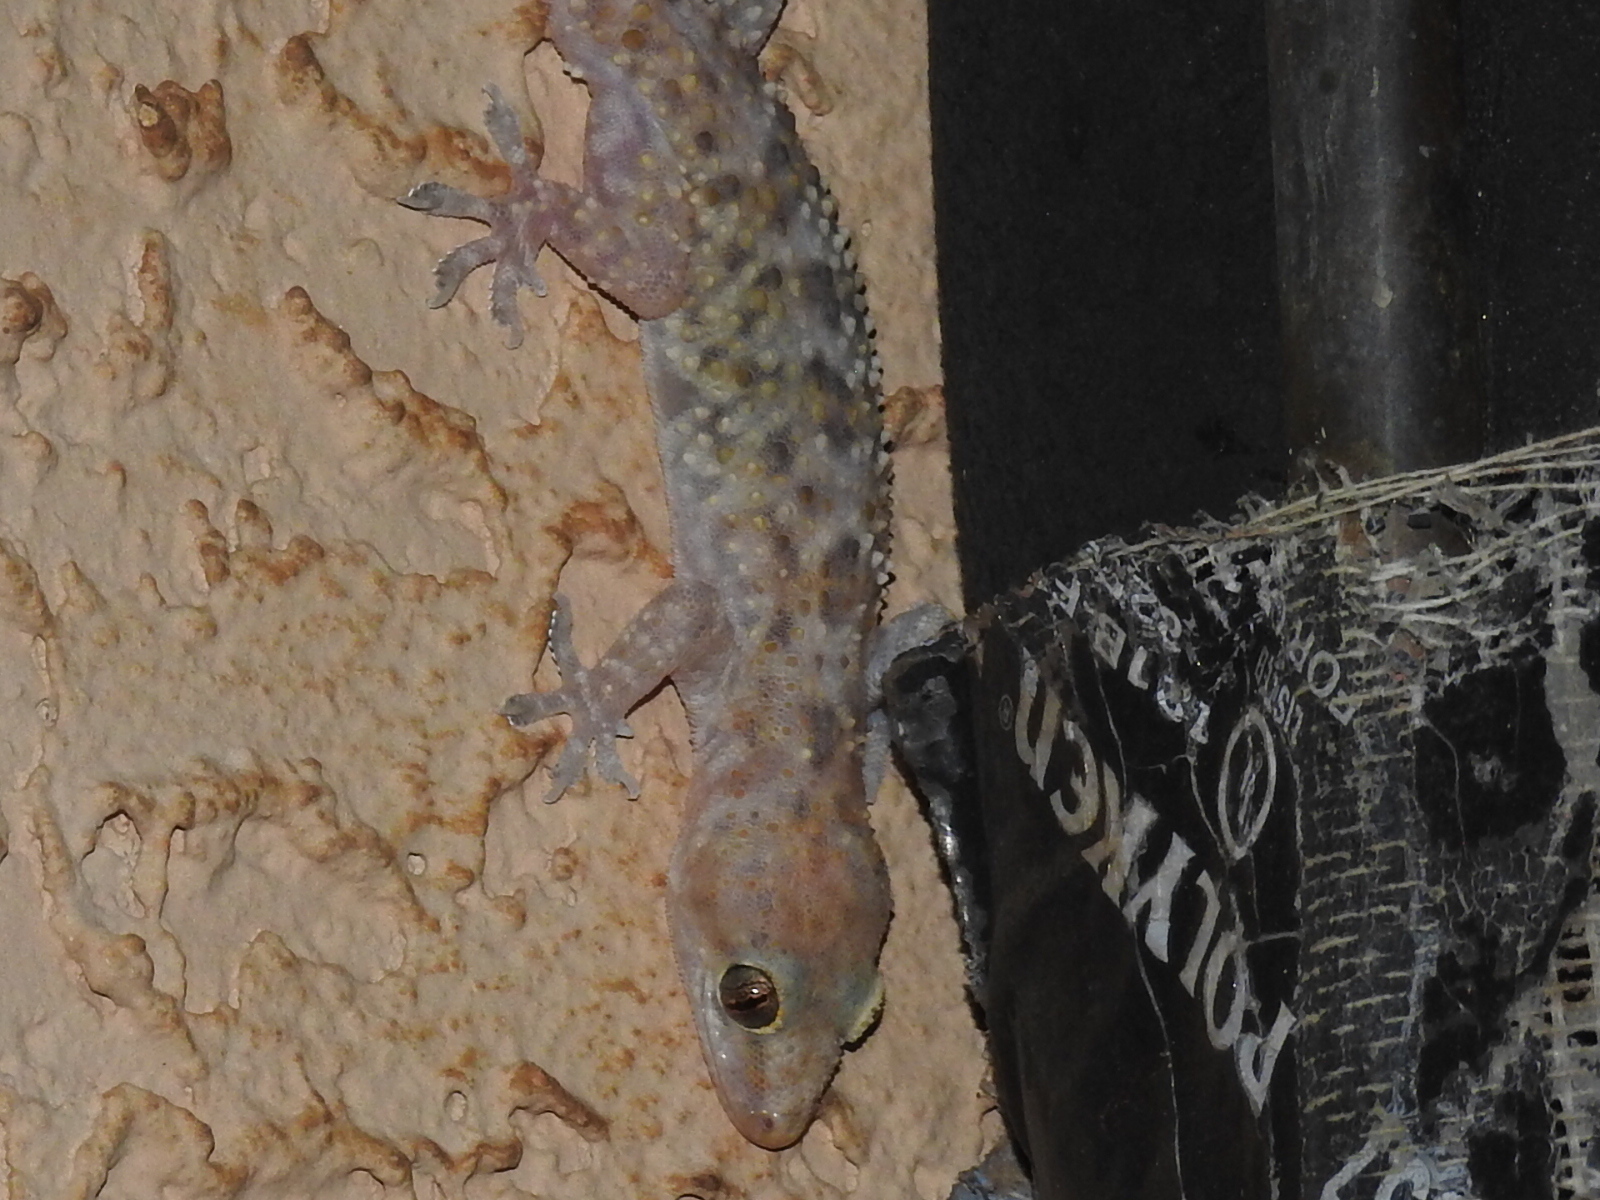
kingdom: Animalia
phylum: Chordata
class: Squamata
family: Gekkonidae
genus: Hemidactylus
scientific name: Hemidactylus turcicus
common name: Turkish gecko
